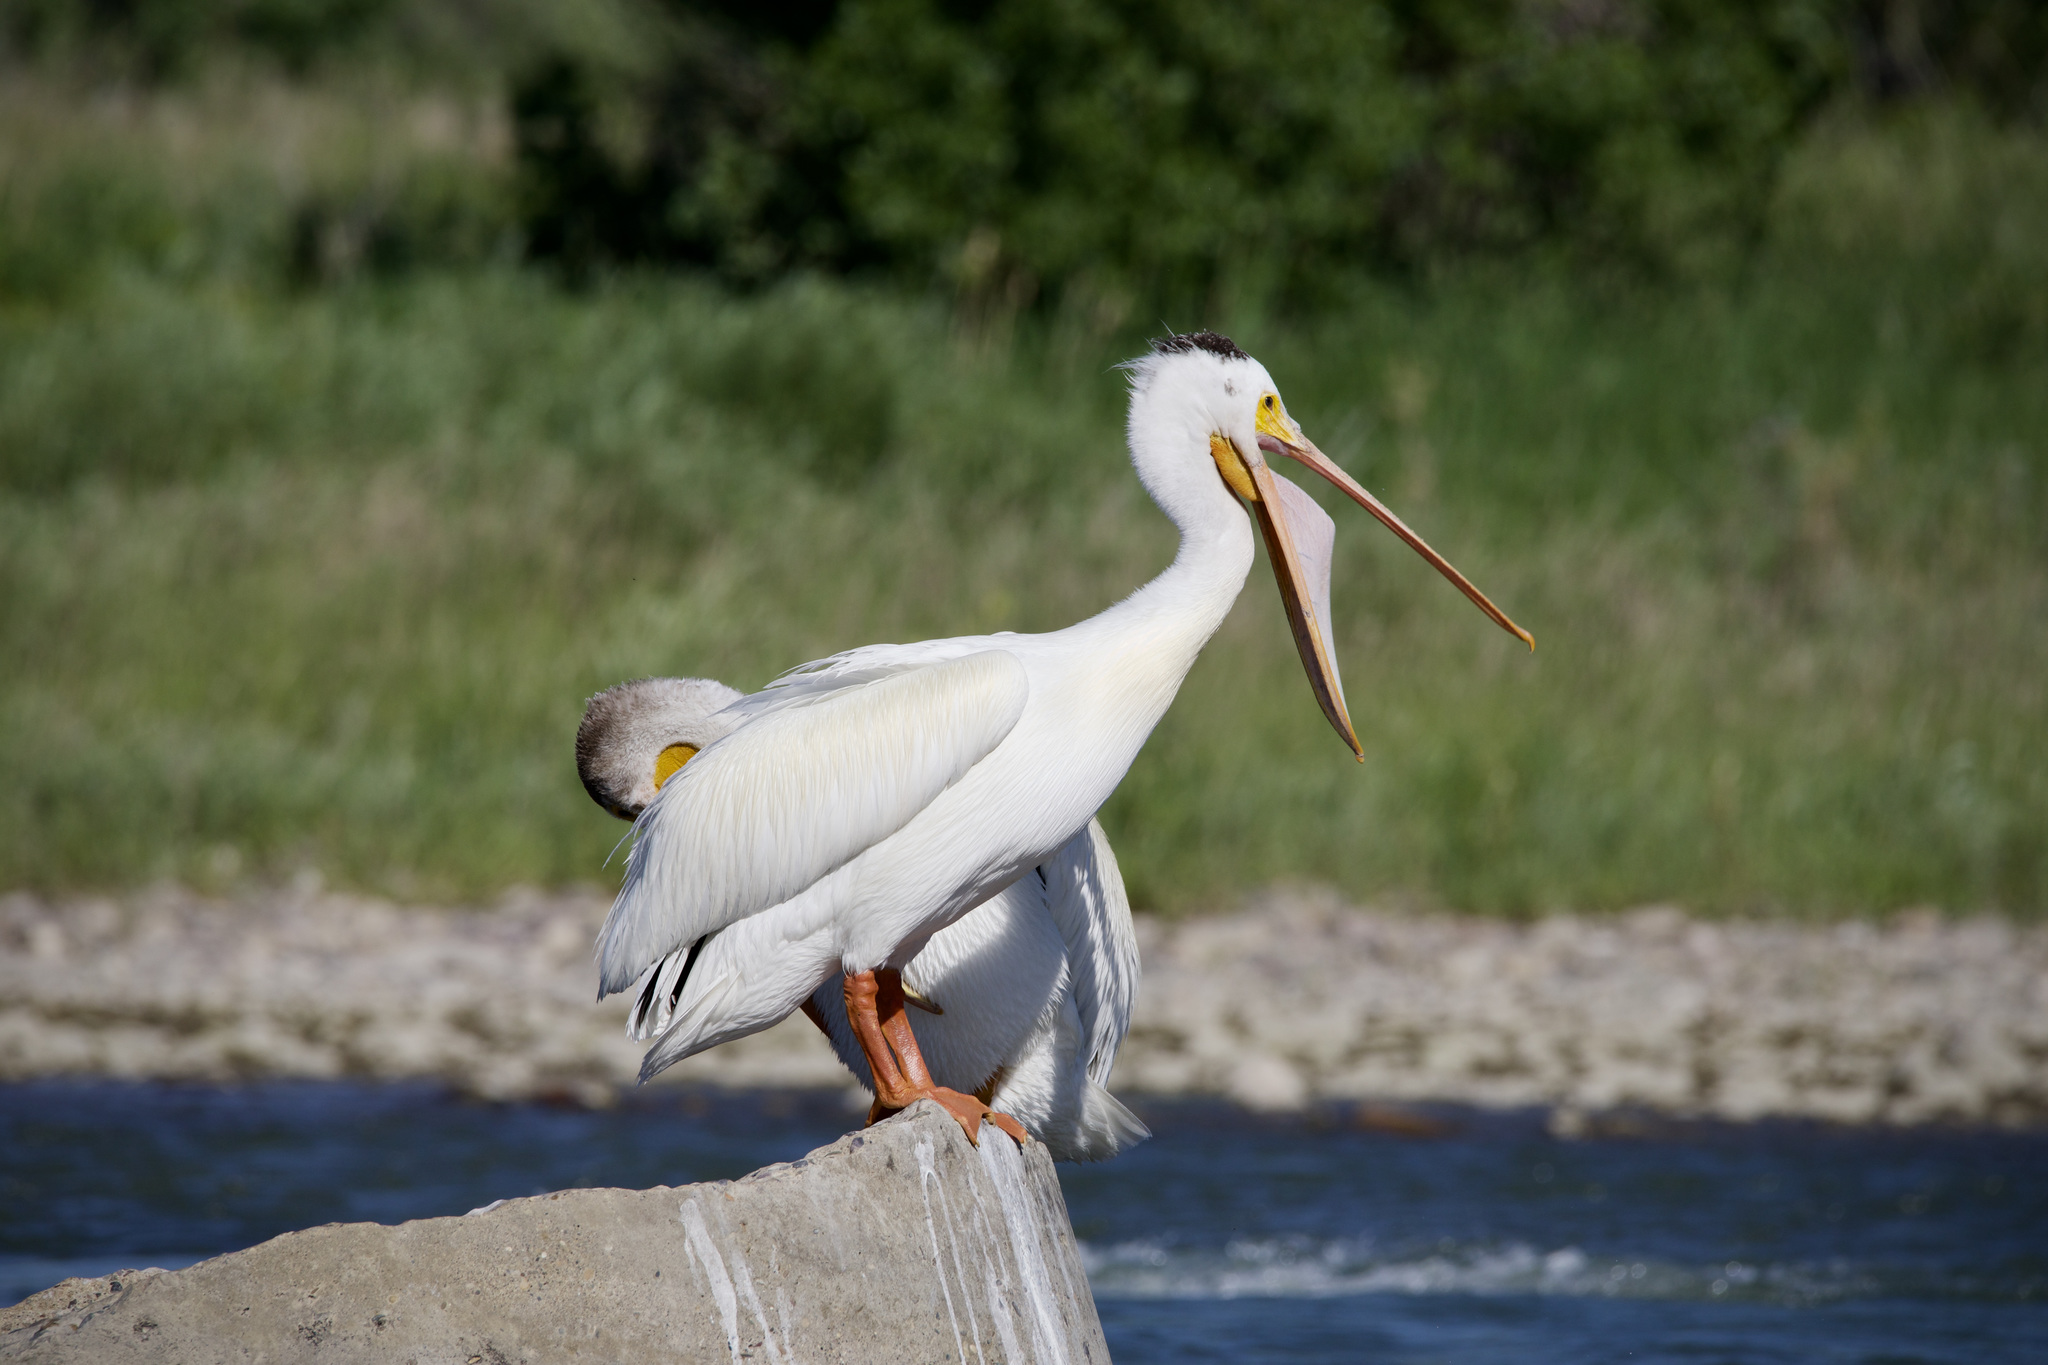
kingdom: Animalia
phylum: Chordata
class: Aves
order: Pelecaniformes
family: Pelecanidae
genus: Pelecanus
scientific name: Pelecanus erythrorhynchos
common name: American white pelican
